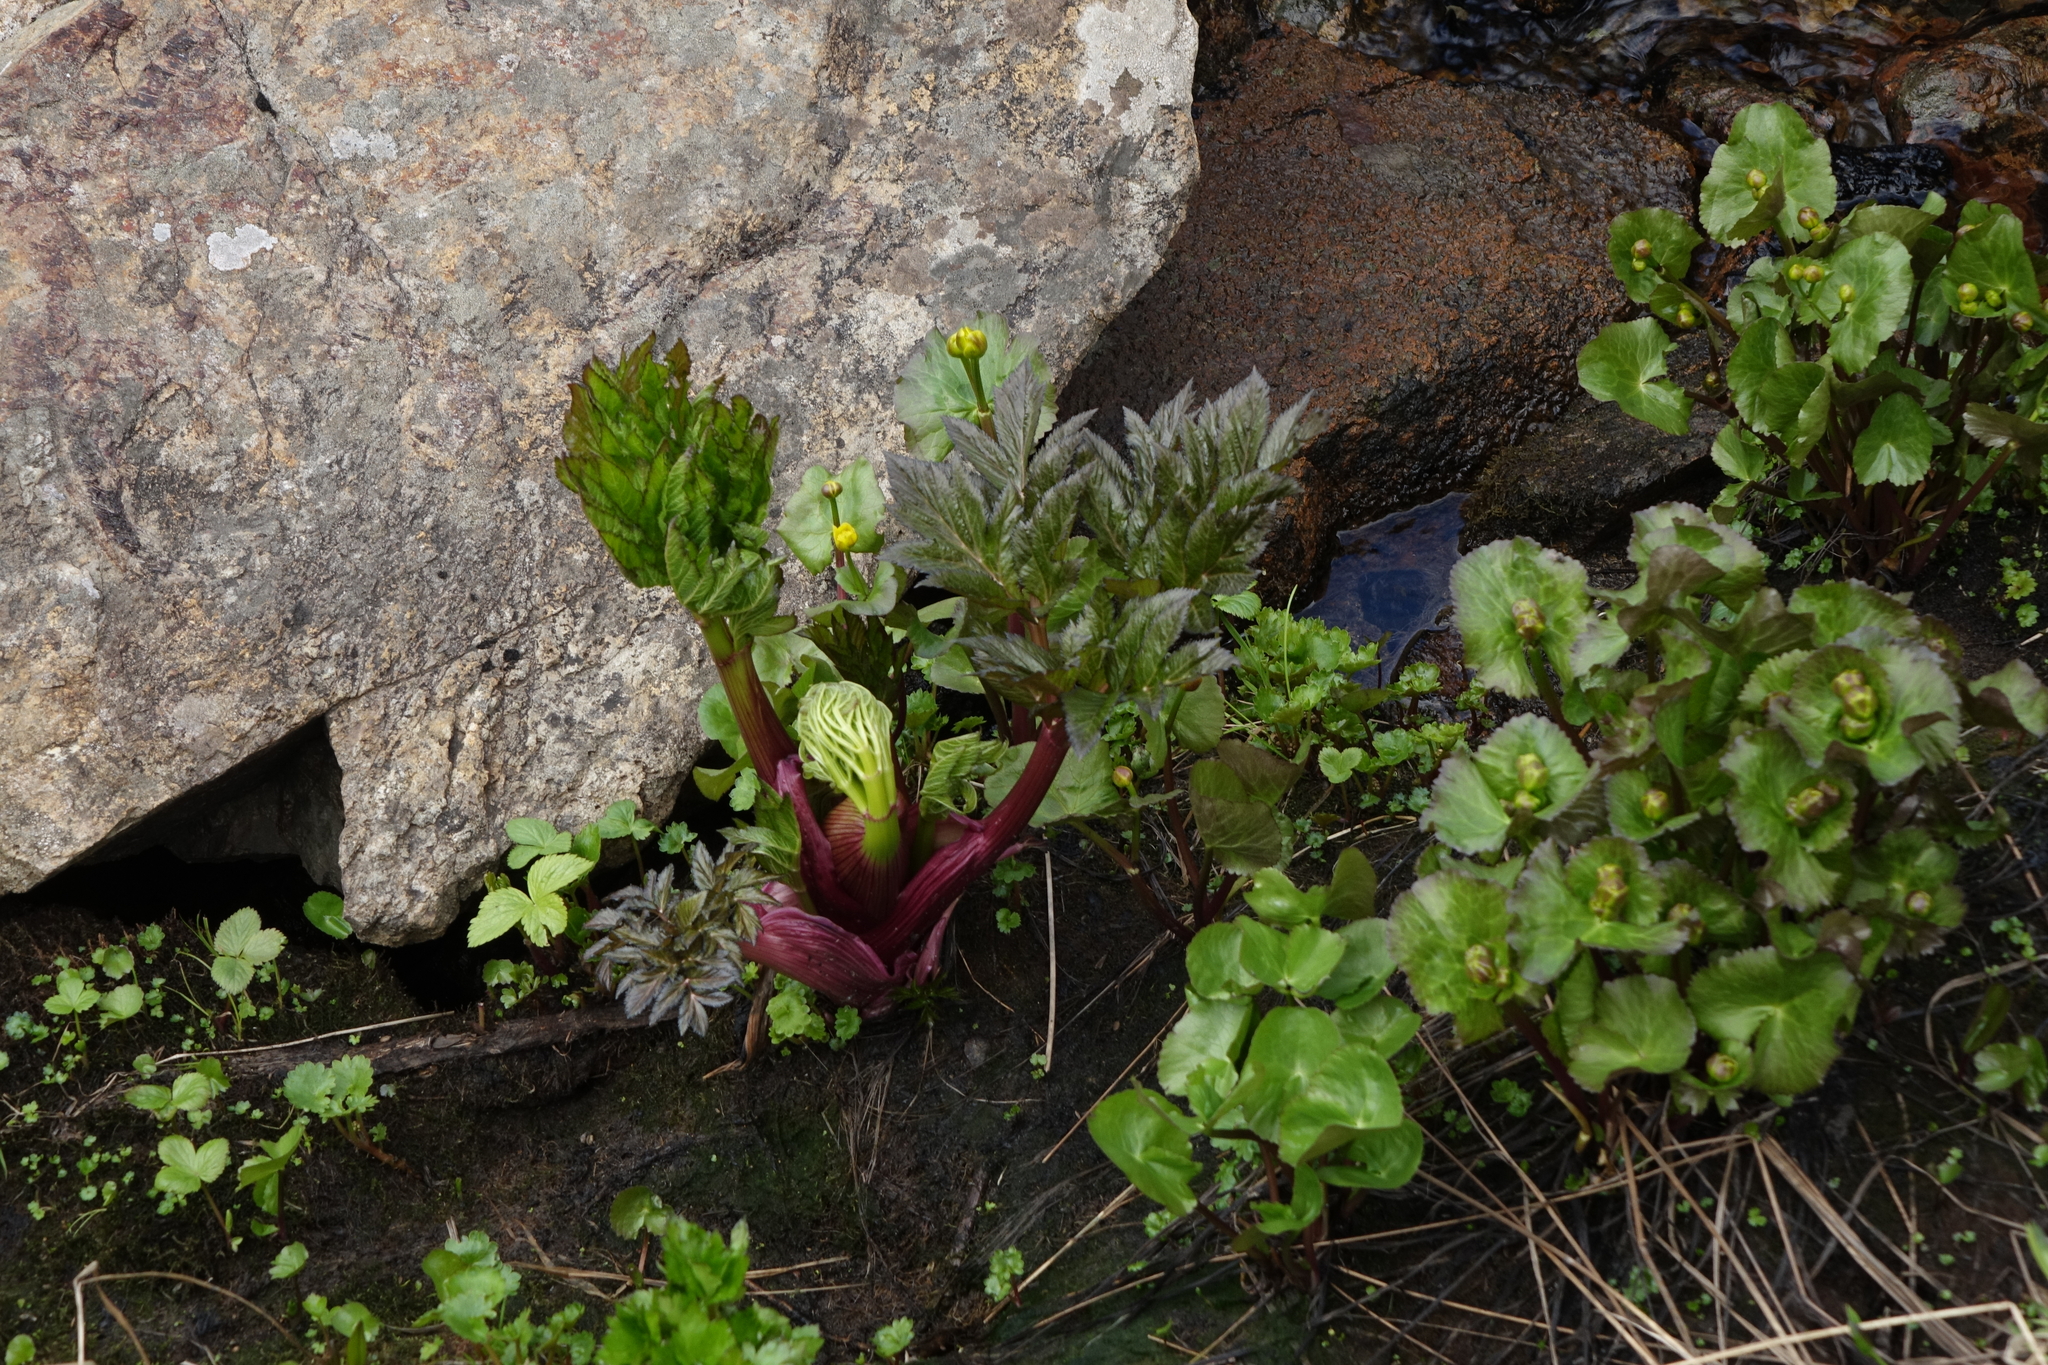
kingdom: Plantae
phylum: Tracheophyta
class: Magnoliopsida
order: Ranunculales
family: Ranunculaceae
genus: Caltha
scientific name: Caltha palustris
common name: Marsh marigold
